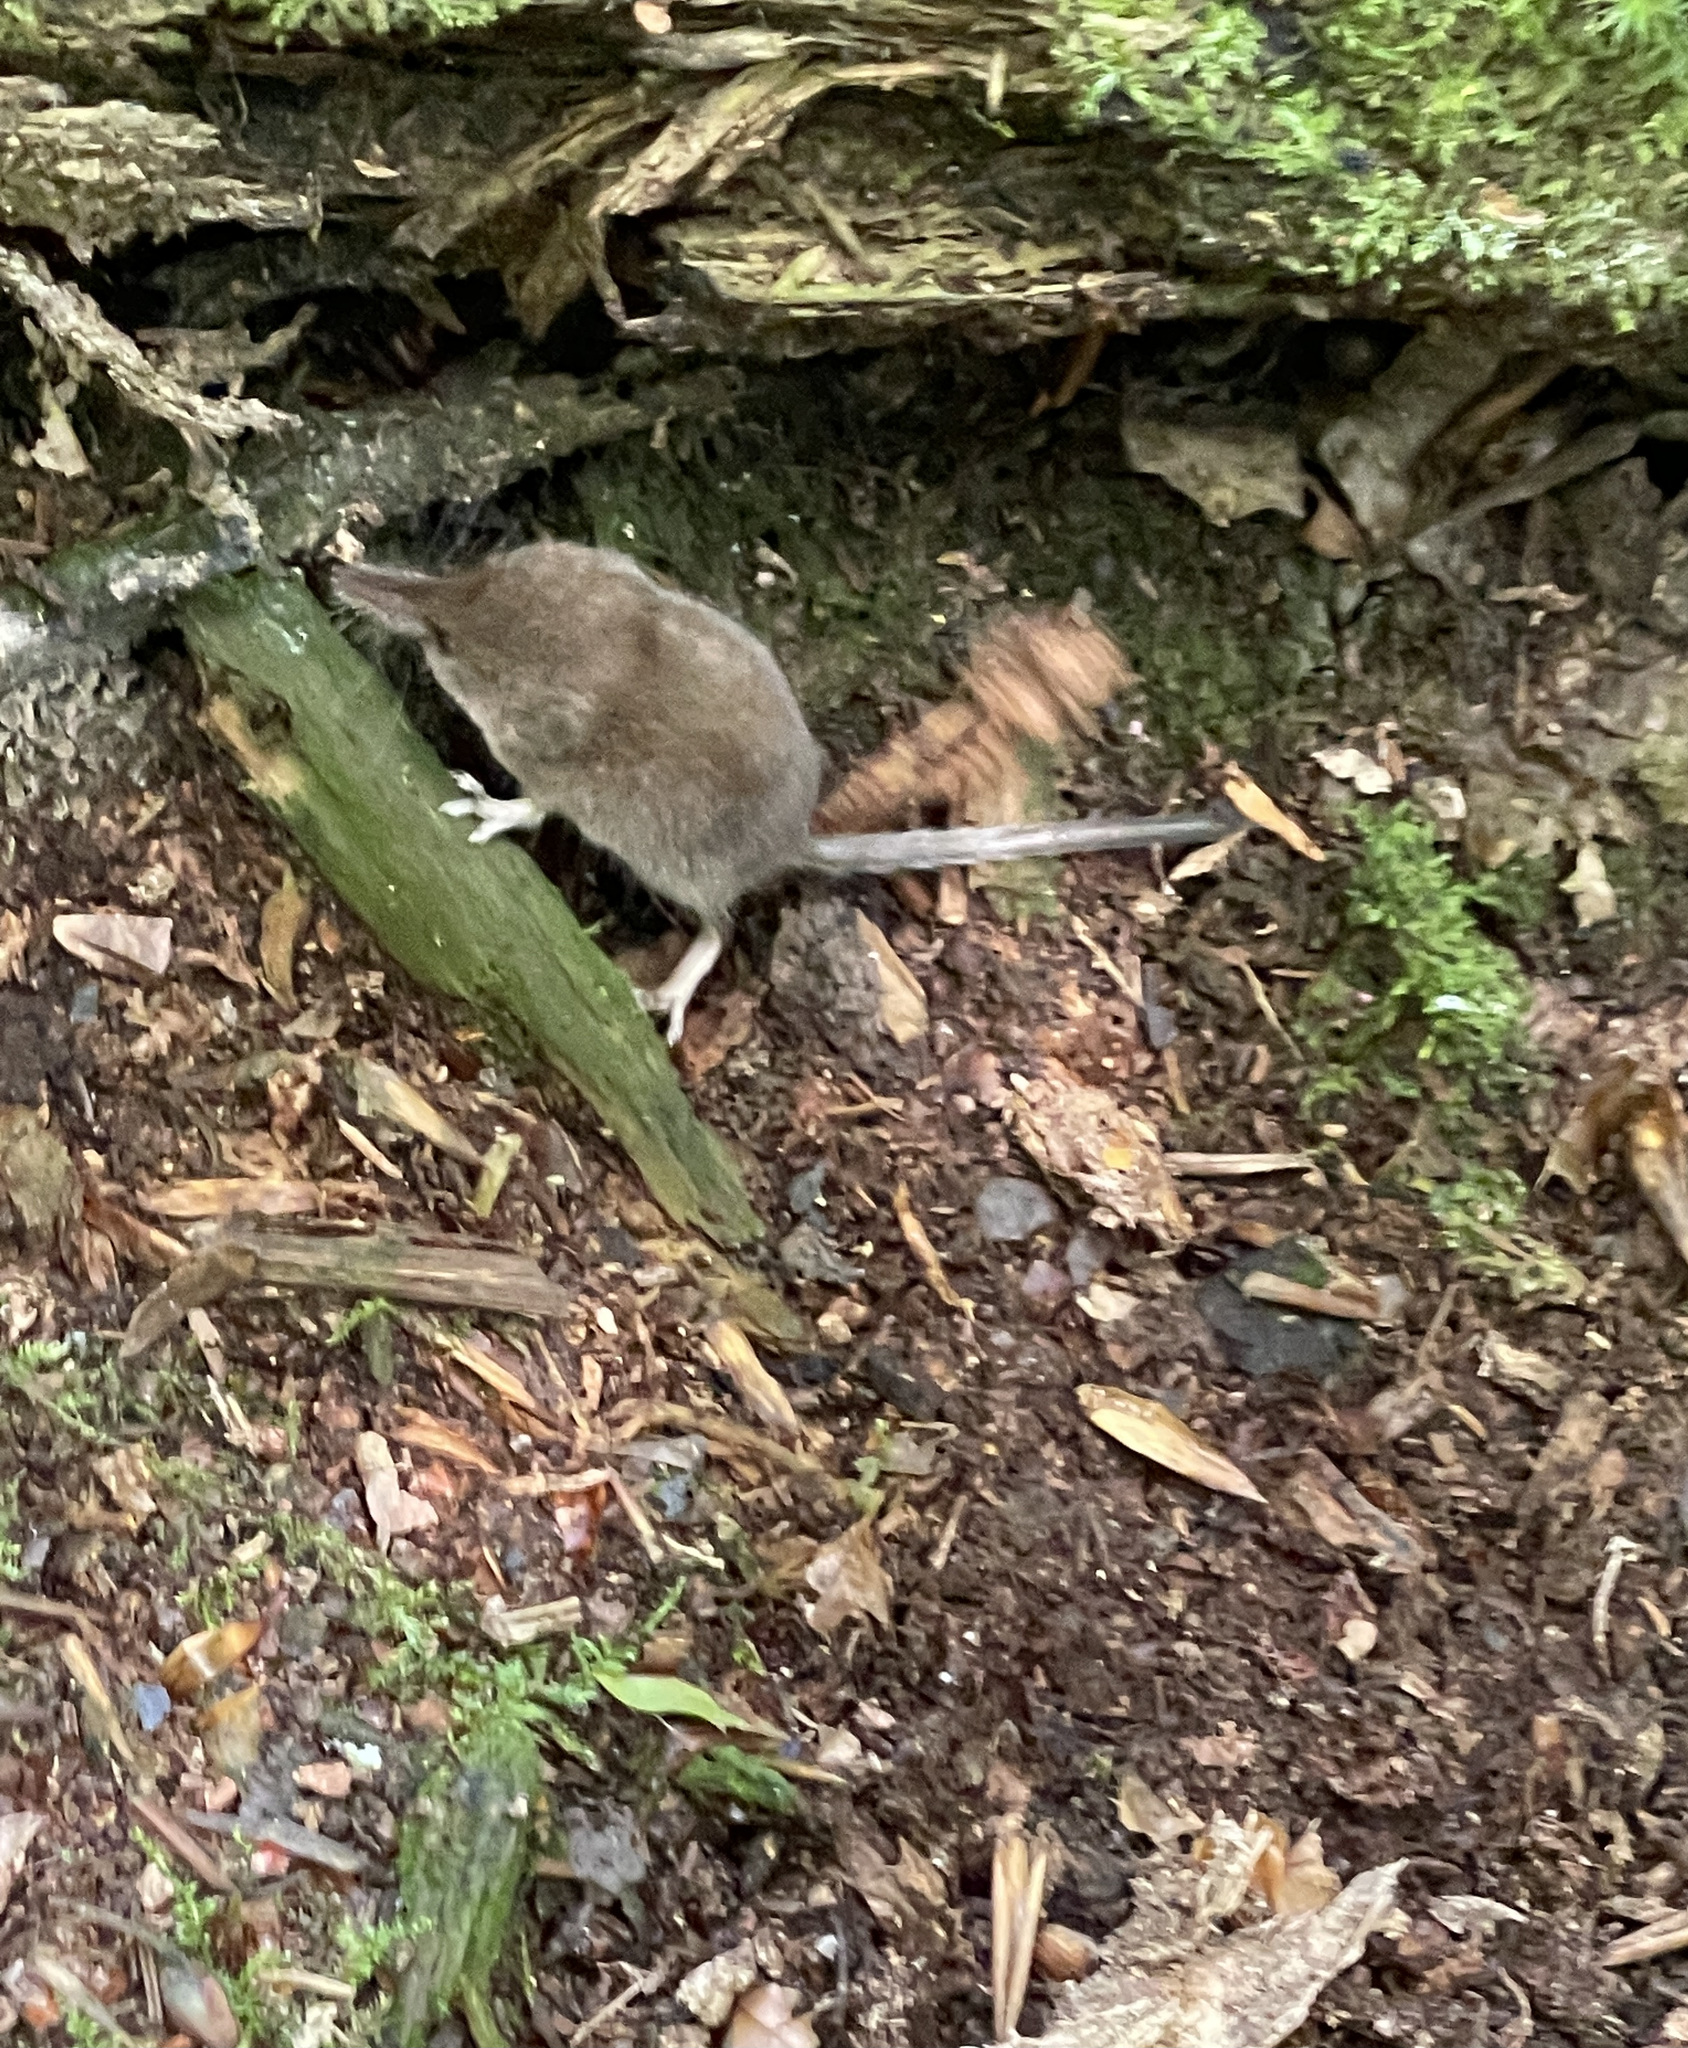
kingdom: Animalia
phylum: Chordata
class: Mammalia
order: Soricomorpha
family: Soricidae
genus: Sorex
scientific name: Sorex minutus
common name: Eurasian pygmy shrew
